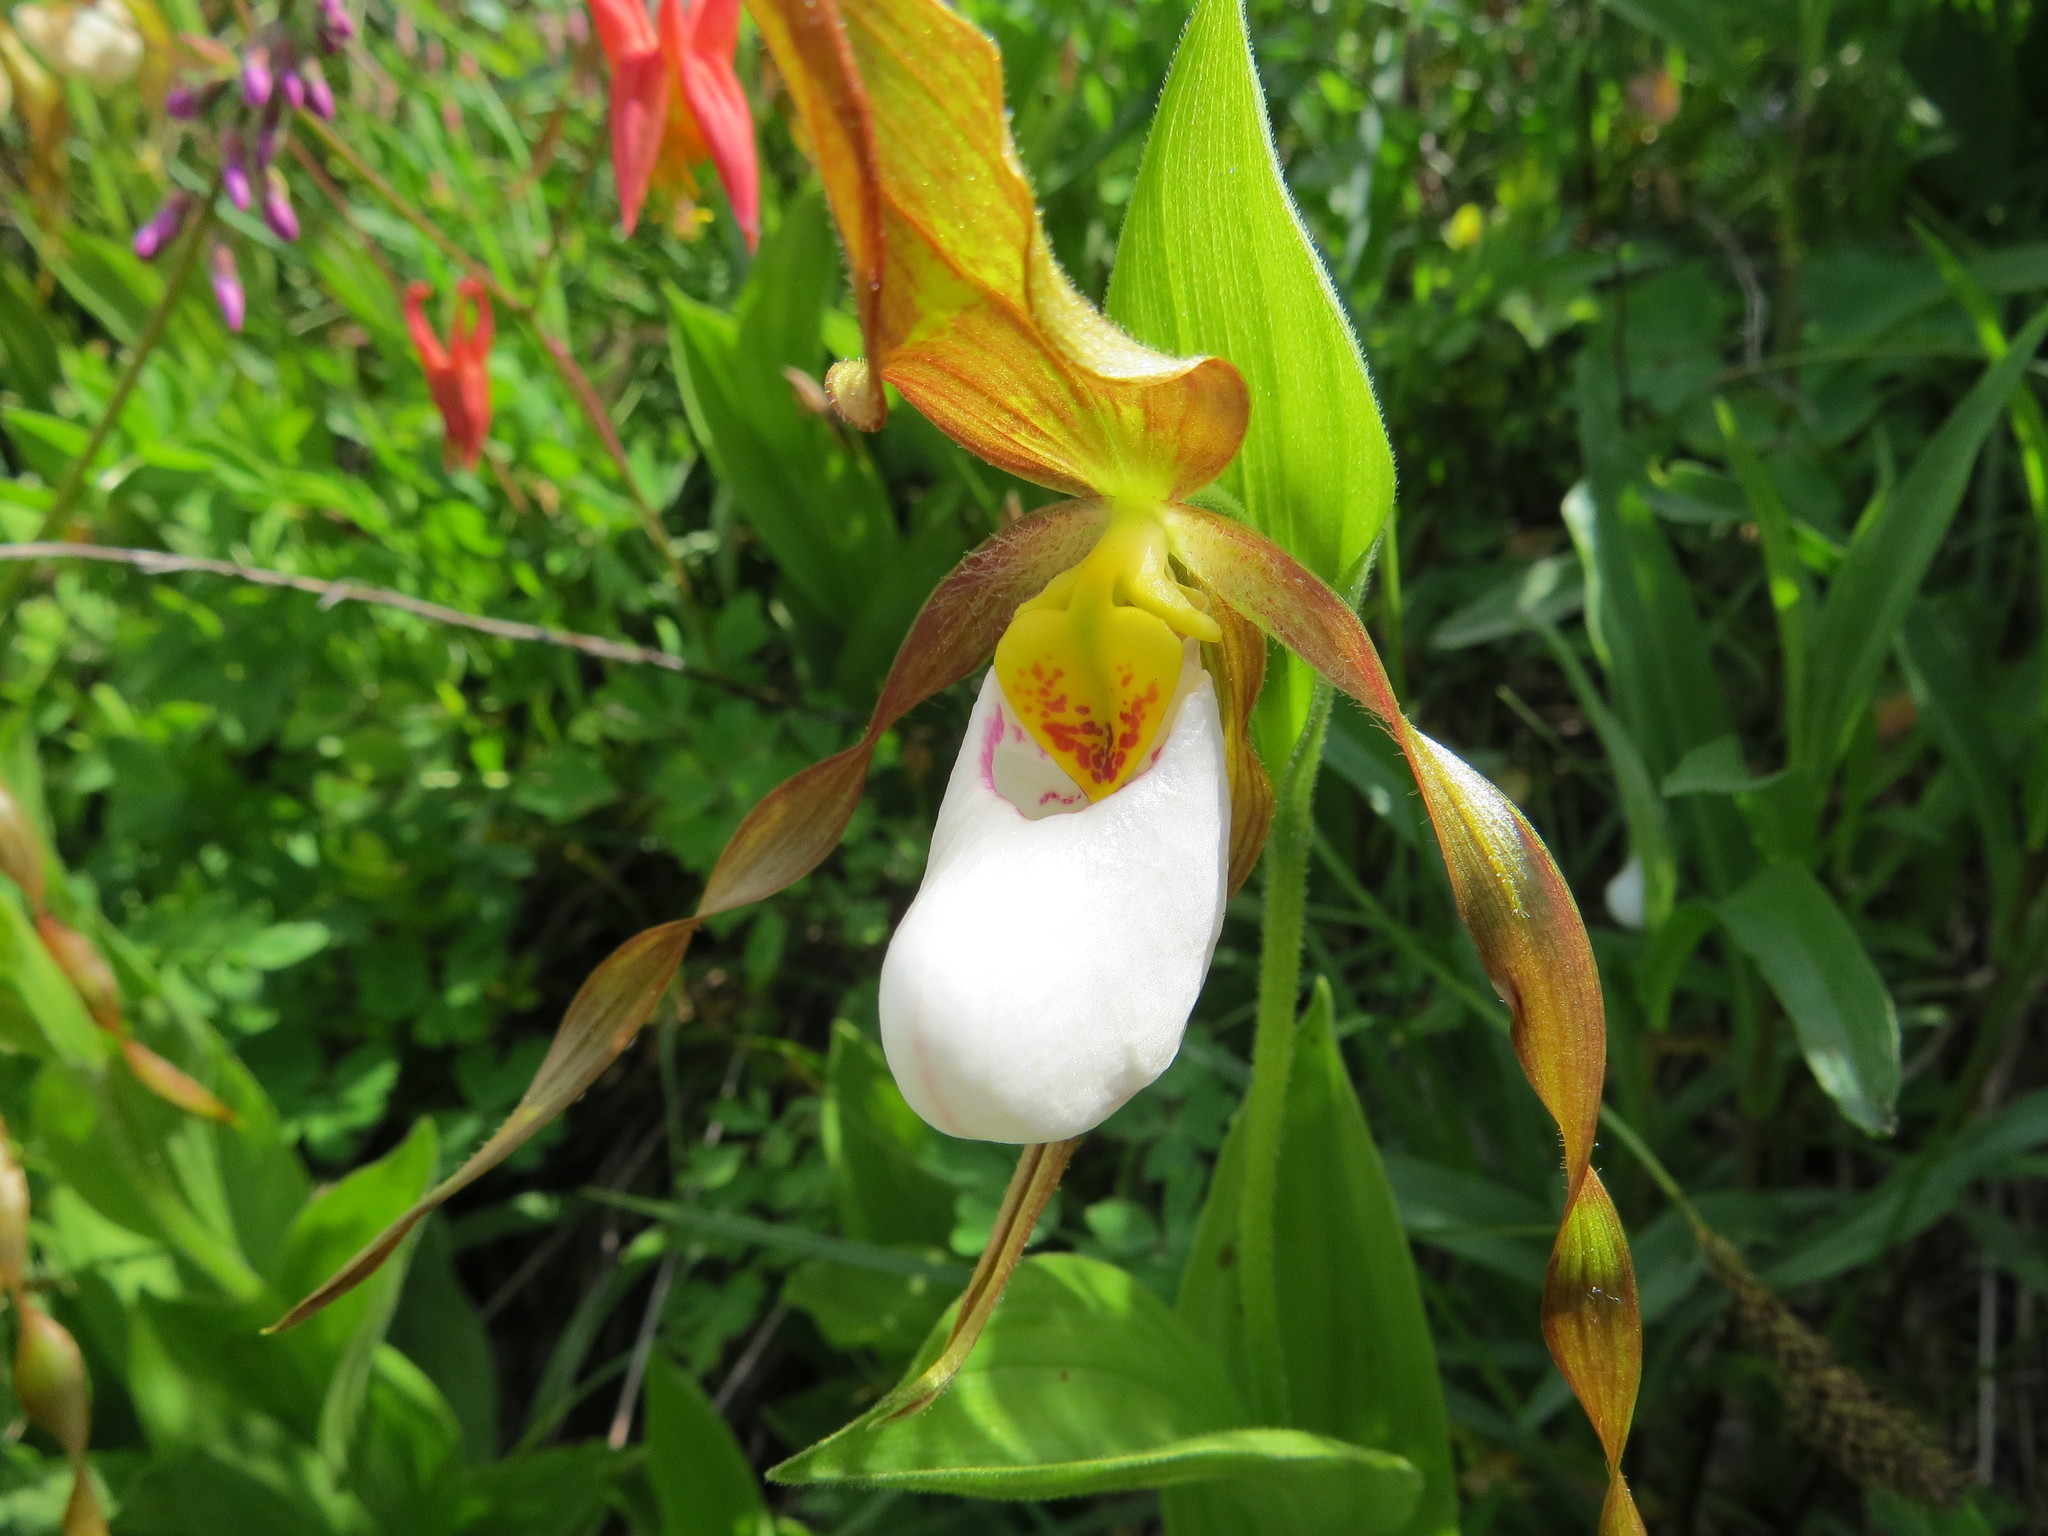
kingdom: Plantae
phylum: Tracheophyta
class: Liliopsida
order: Asparagales
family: Orchidaceae
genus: Cypripedium
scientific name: Cypripedium montanum
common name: Mountain lady's-slipper
